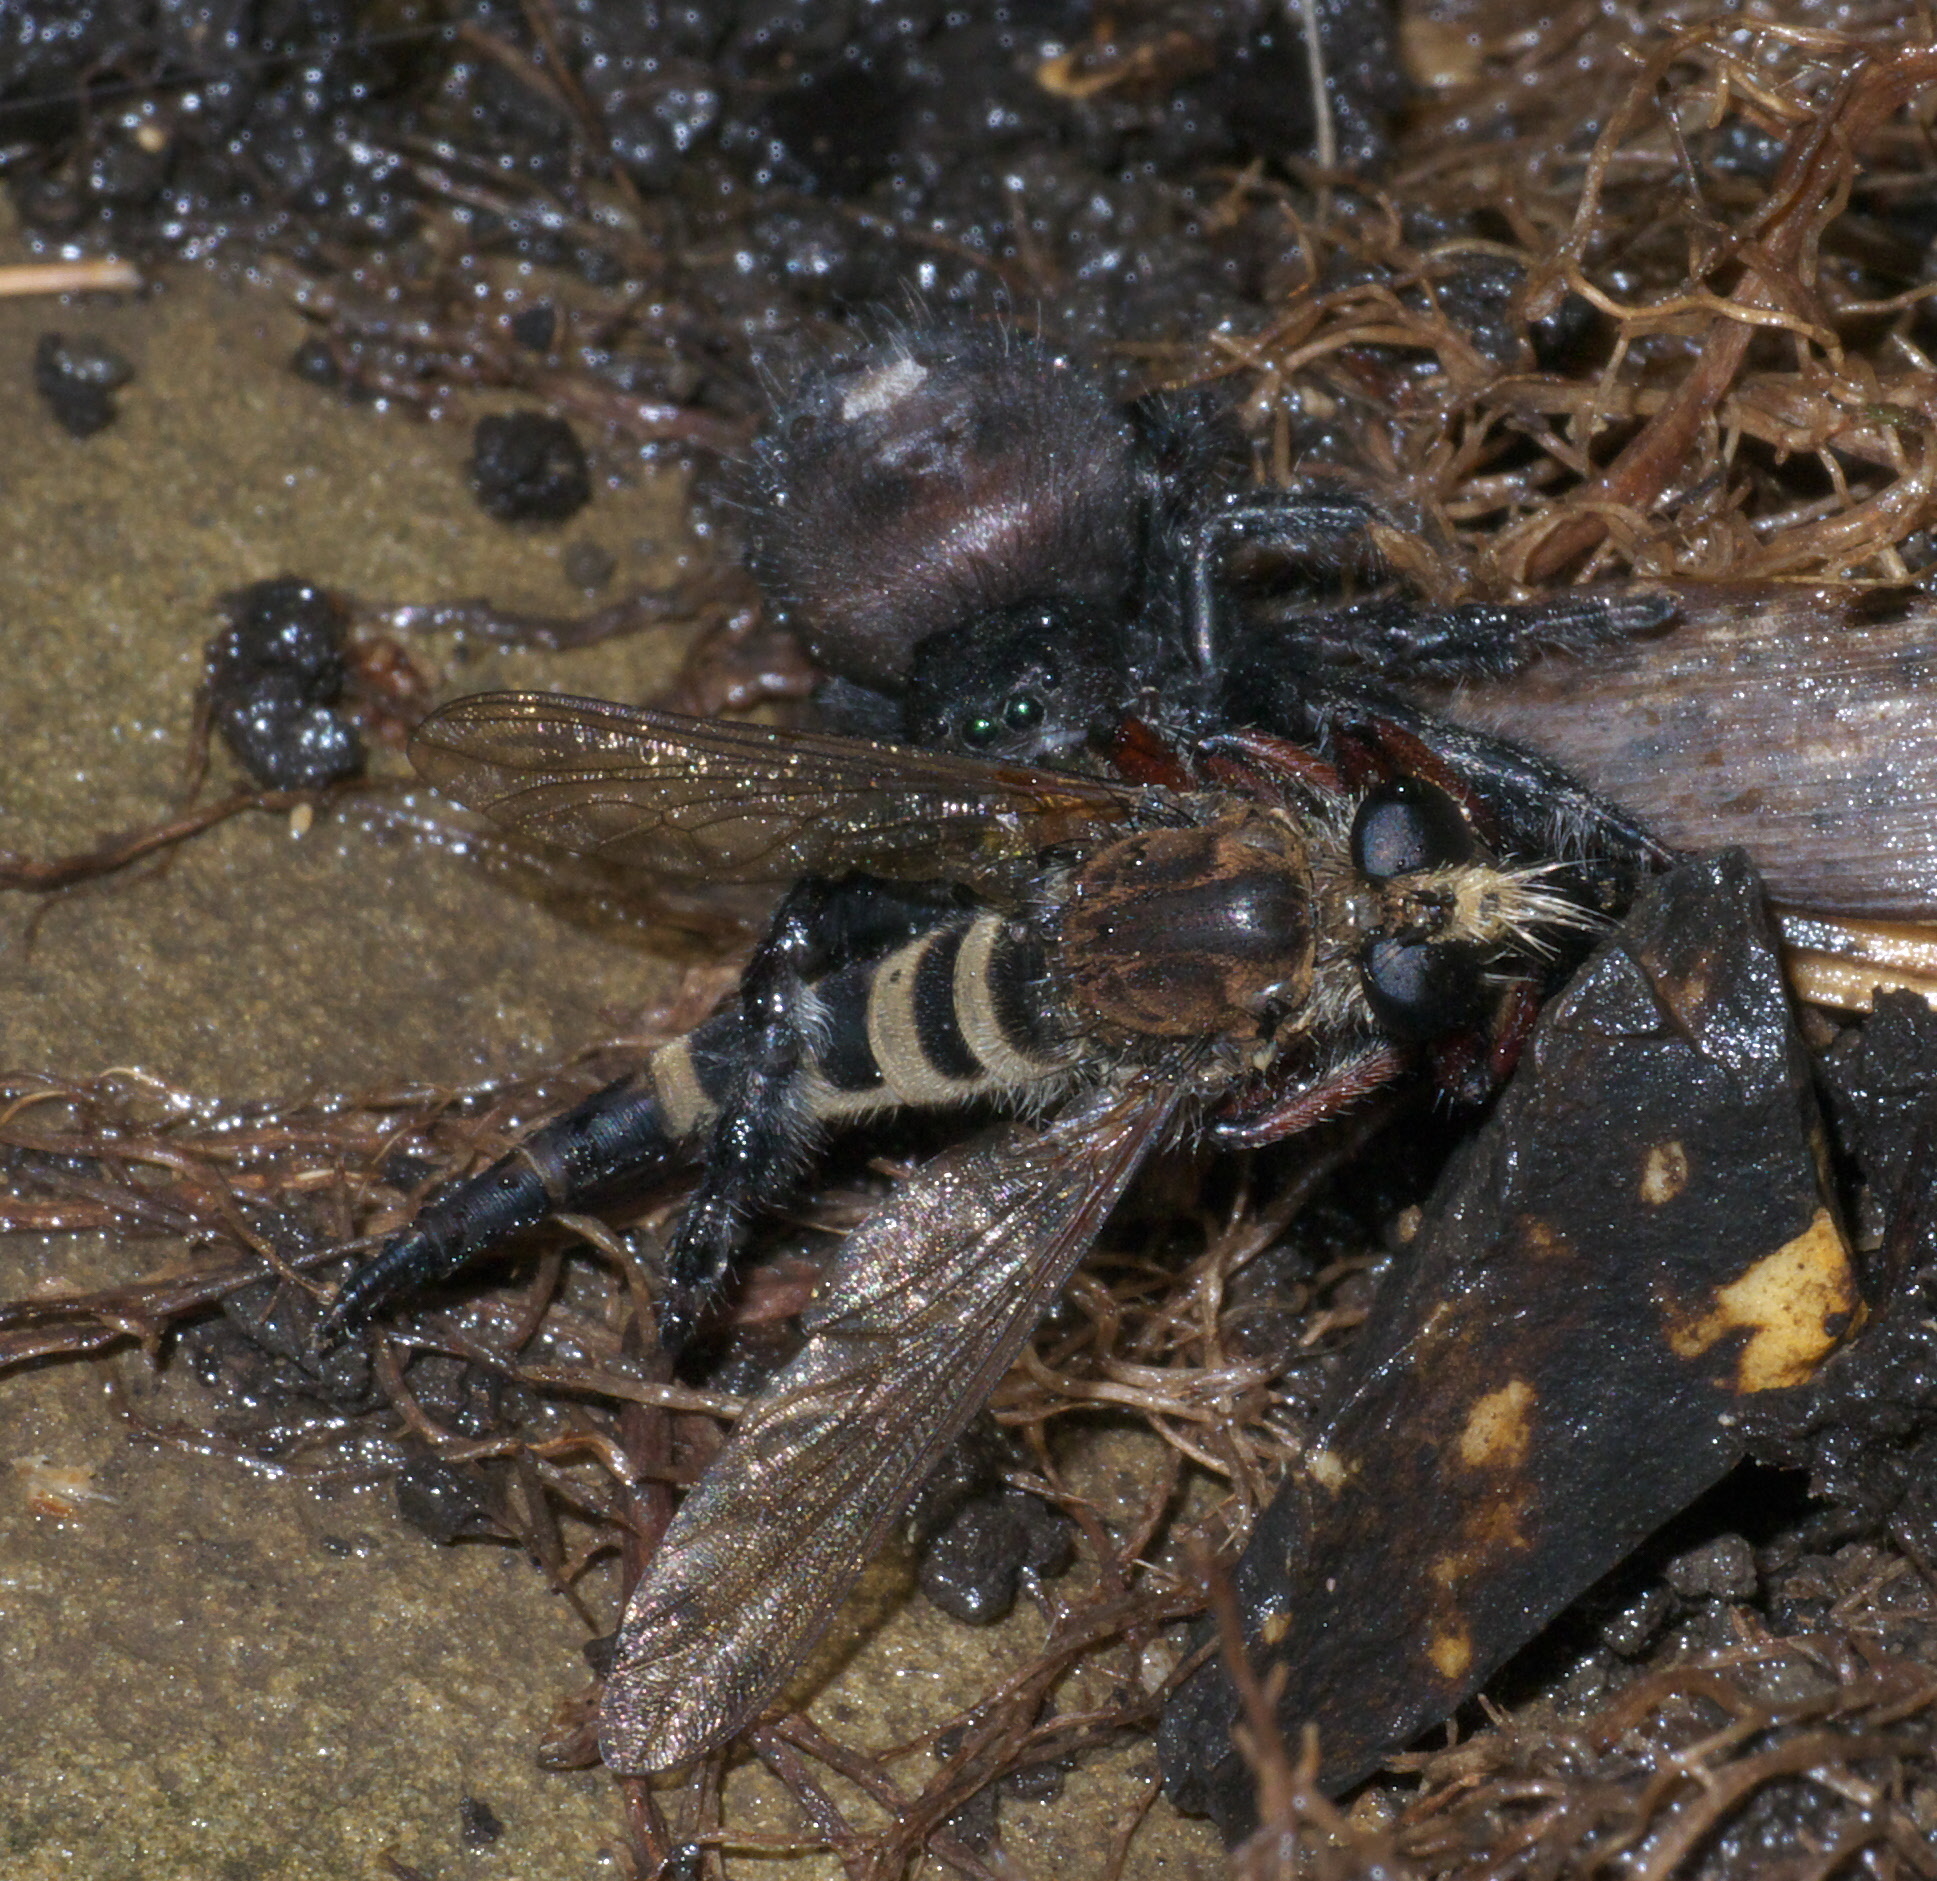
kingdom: Animalia
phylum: Arthropoda
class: Arachnida
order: Araneae
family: Salticidae
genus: Phidippus
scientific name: Phidippus audax
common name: Bold jumper
